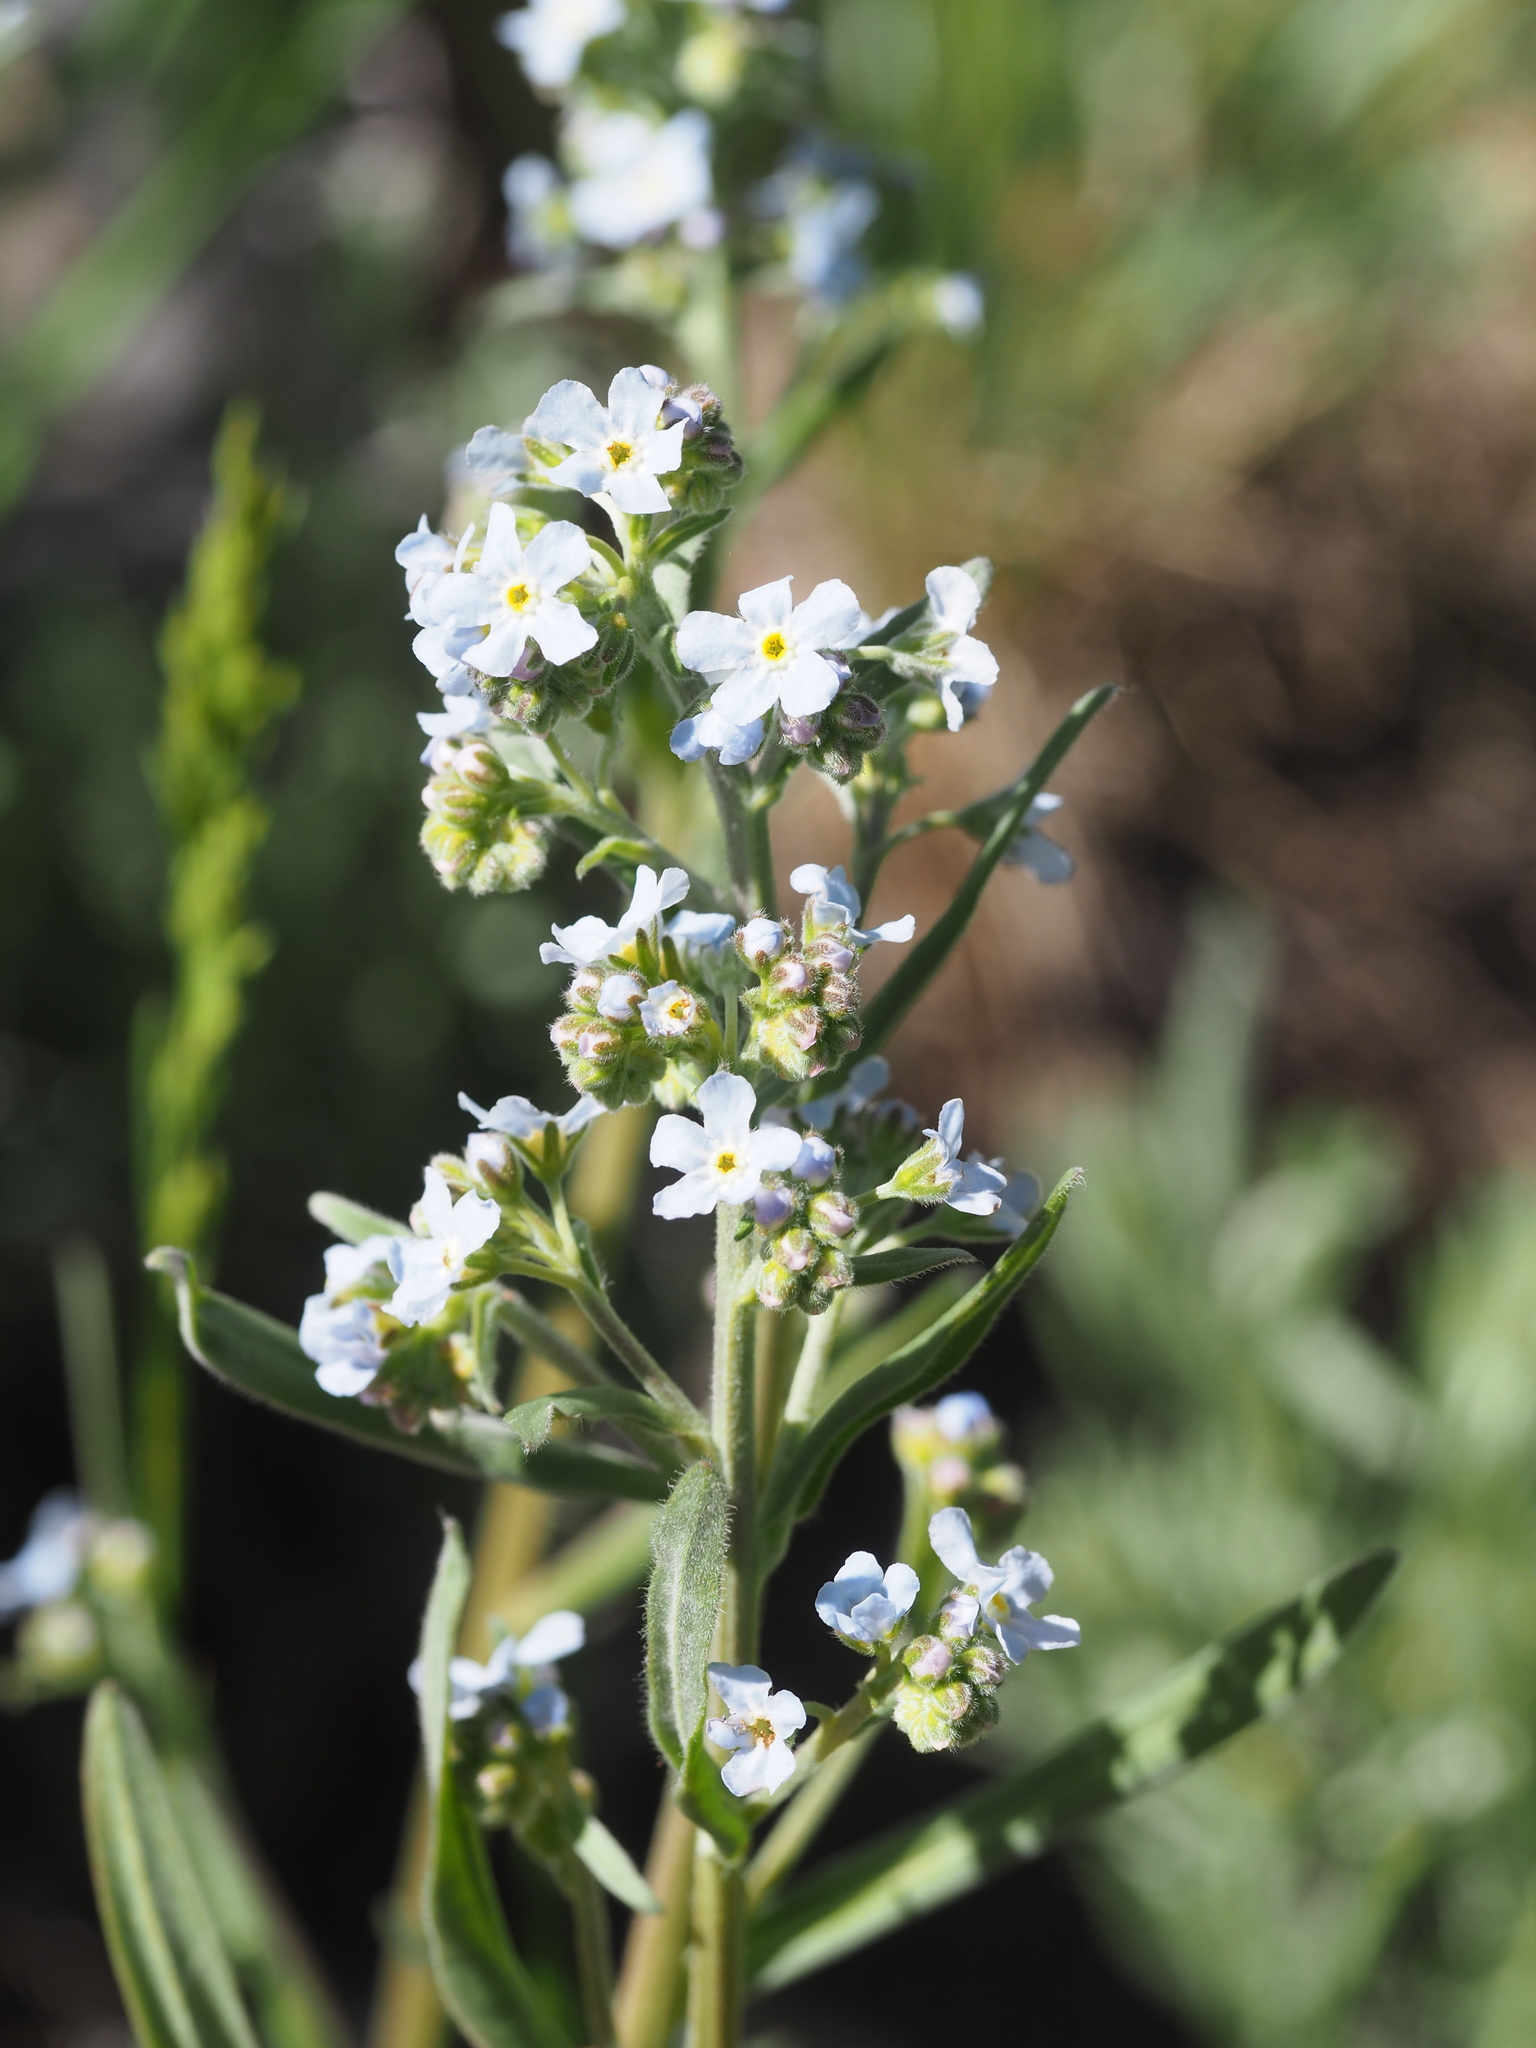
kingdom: Plantae
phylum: Tracheophyta
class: Magnoliopsida
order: Boraginales
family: Boraginaceae
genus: Hackelia
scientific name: Hackelia brevicula
